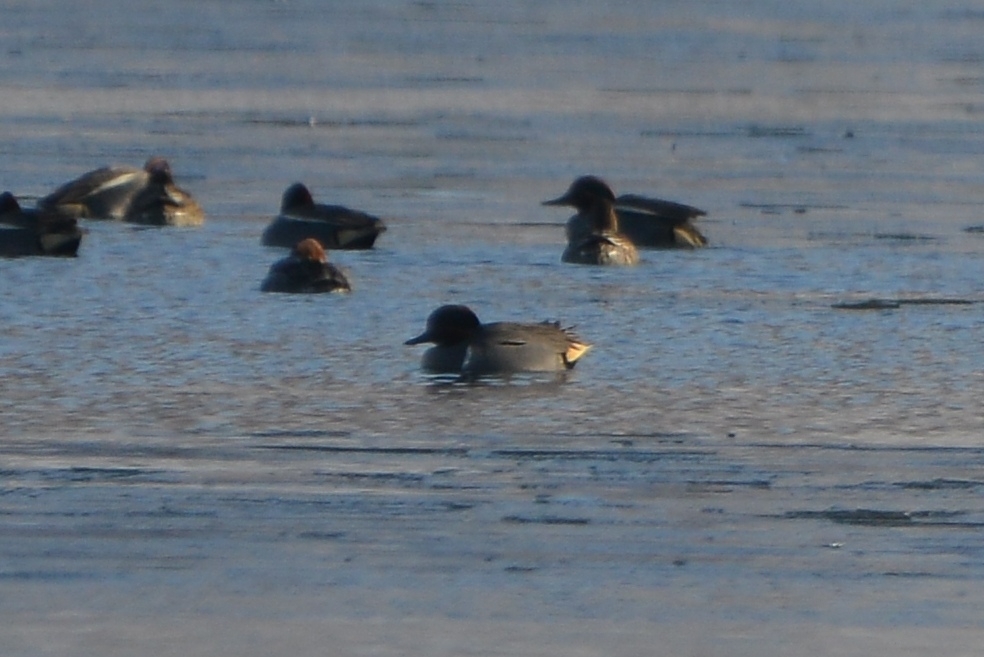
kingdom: Animalia
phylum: Chordata
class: Aves
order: Anseriformes
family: Anatidae
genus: Anas
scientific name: Anas carolinensis
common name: Green-winged teal
